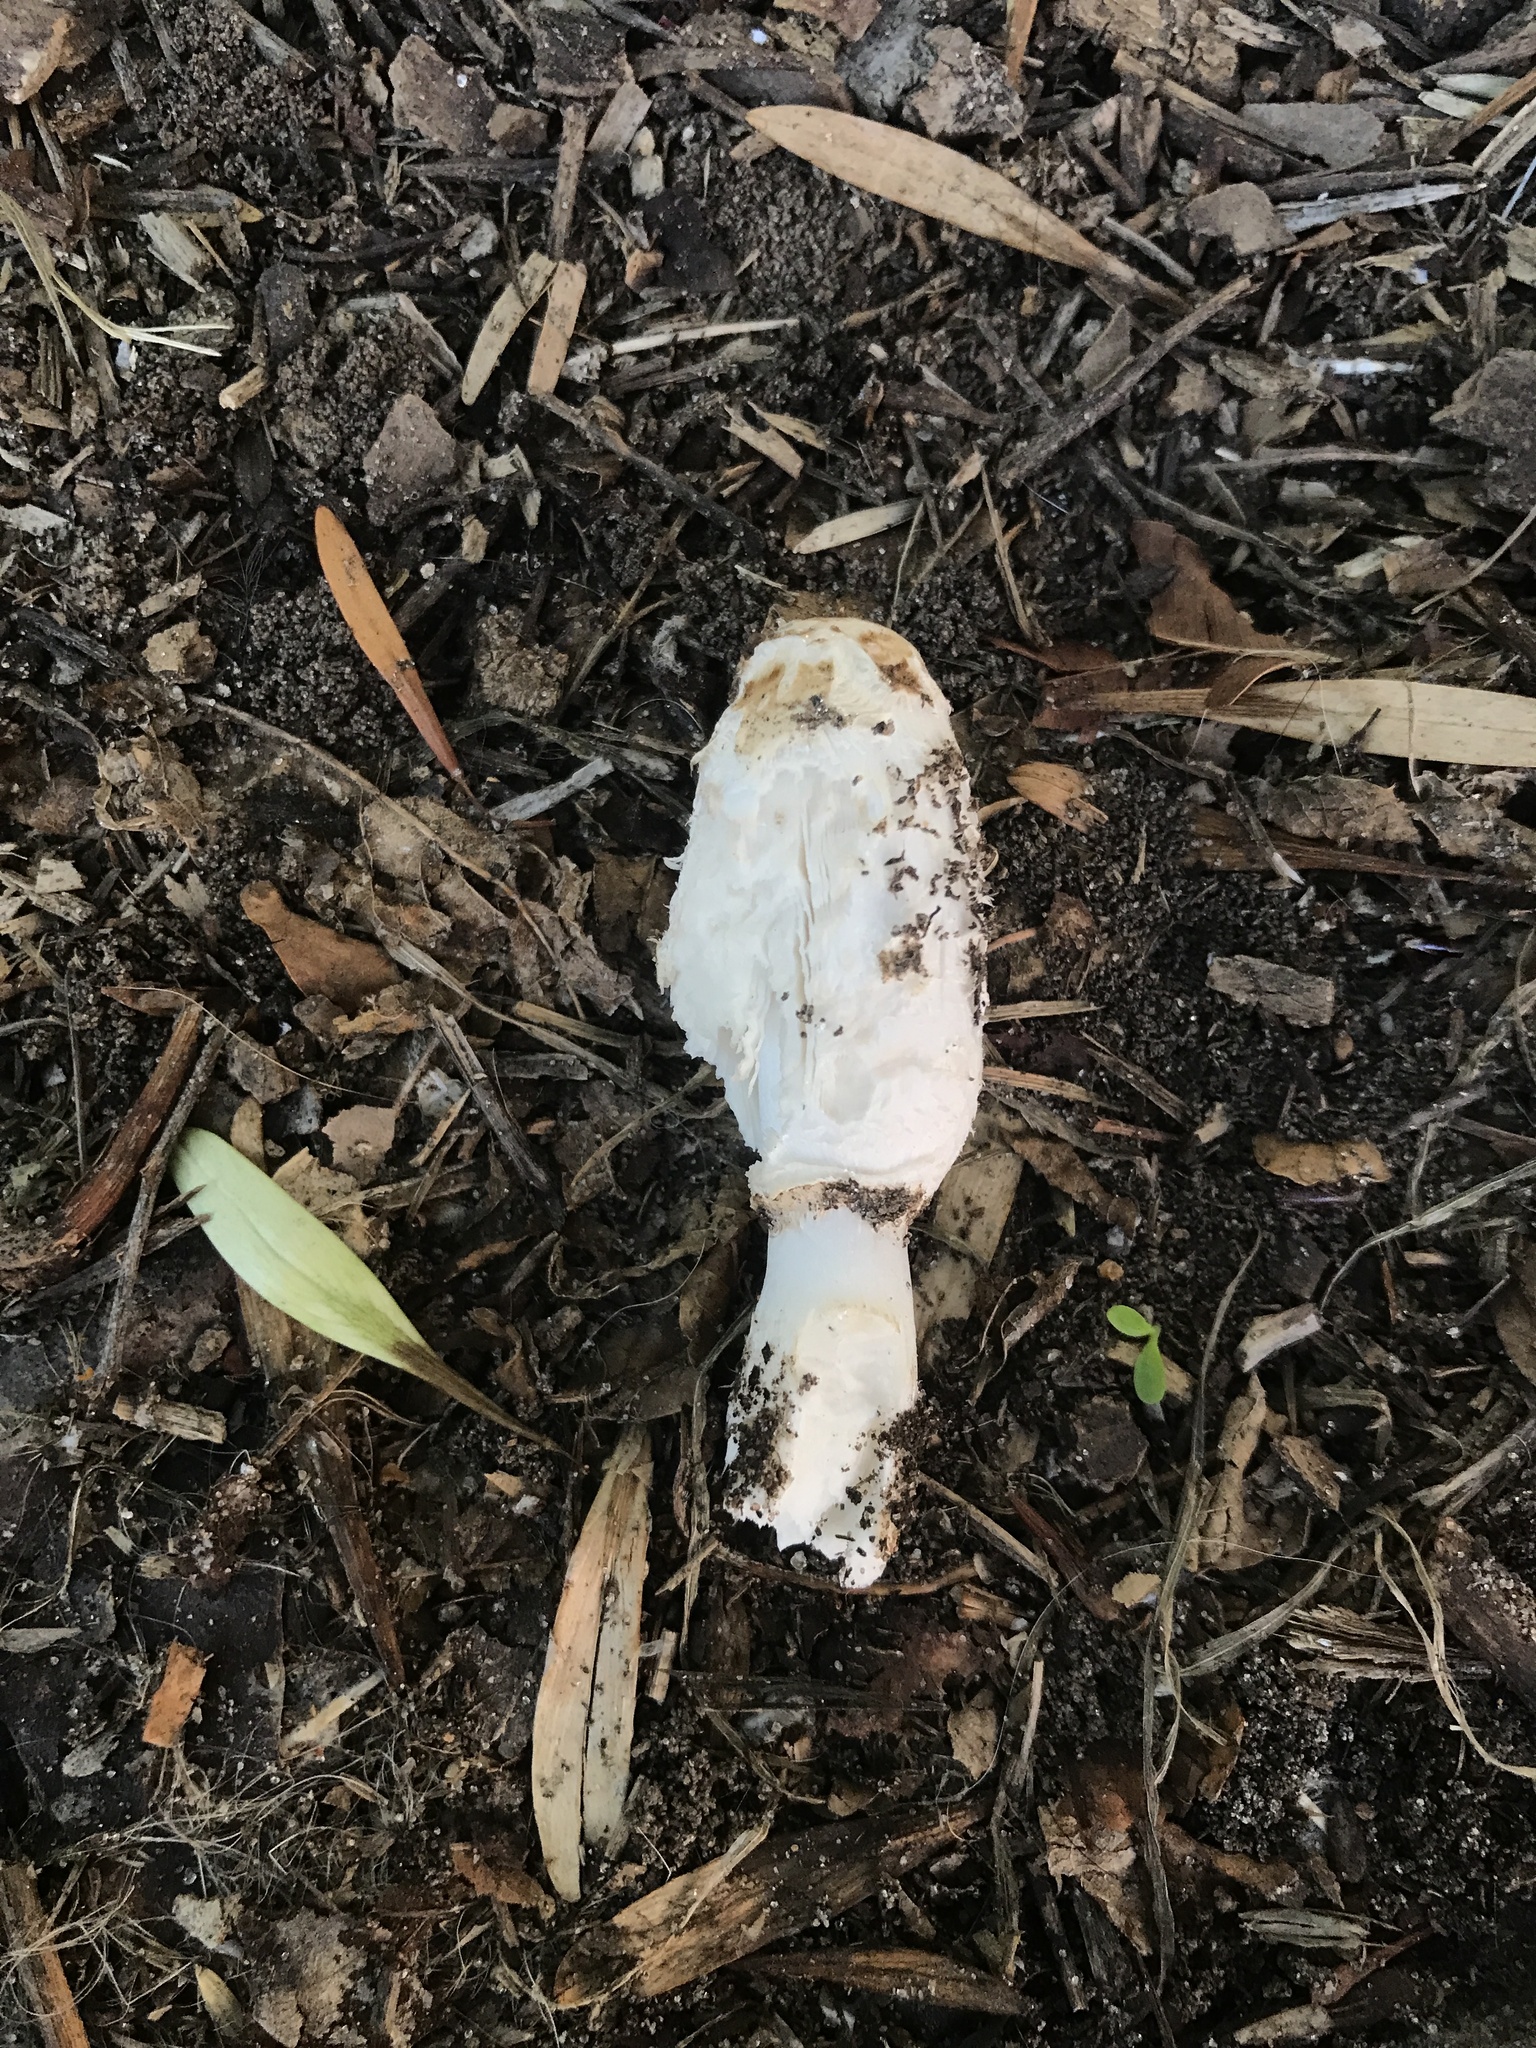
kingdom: Fungi
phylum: Basidiomycota
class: Agaricomycetes
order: Agaricales
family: Agaricaceae
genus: Coprinus
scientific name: Coprinus comatus
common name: Lawyer's wig
